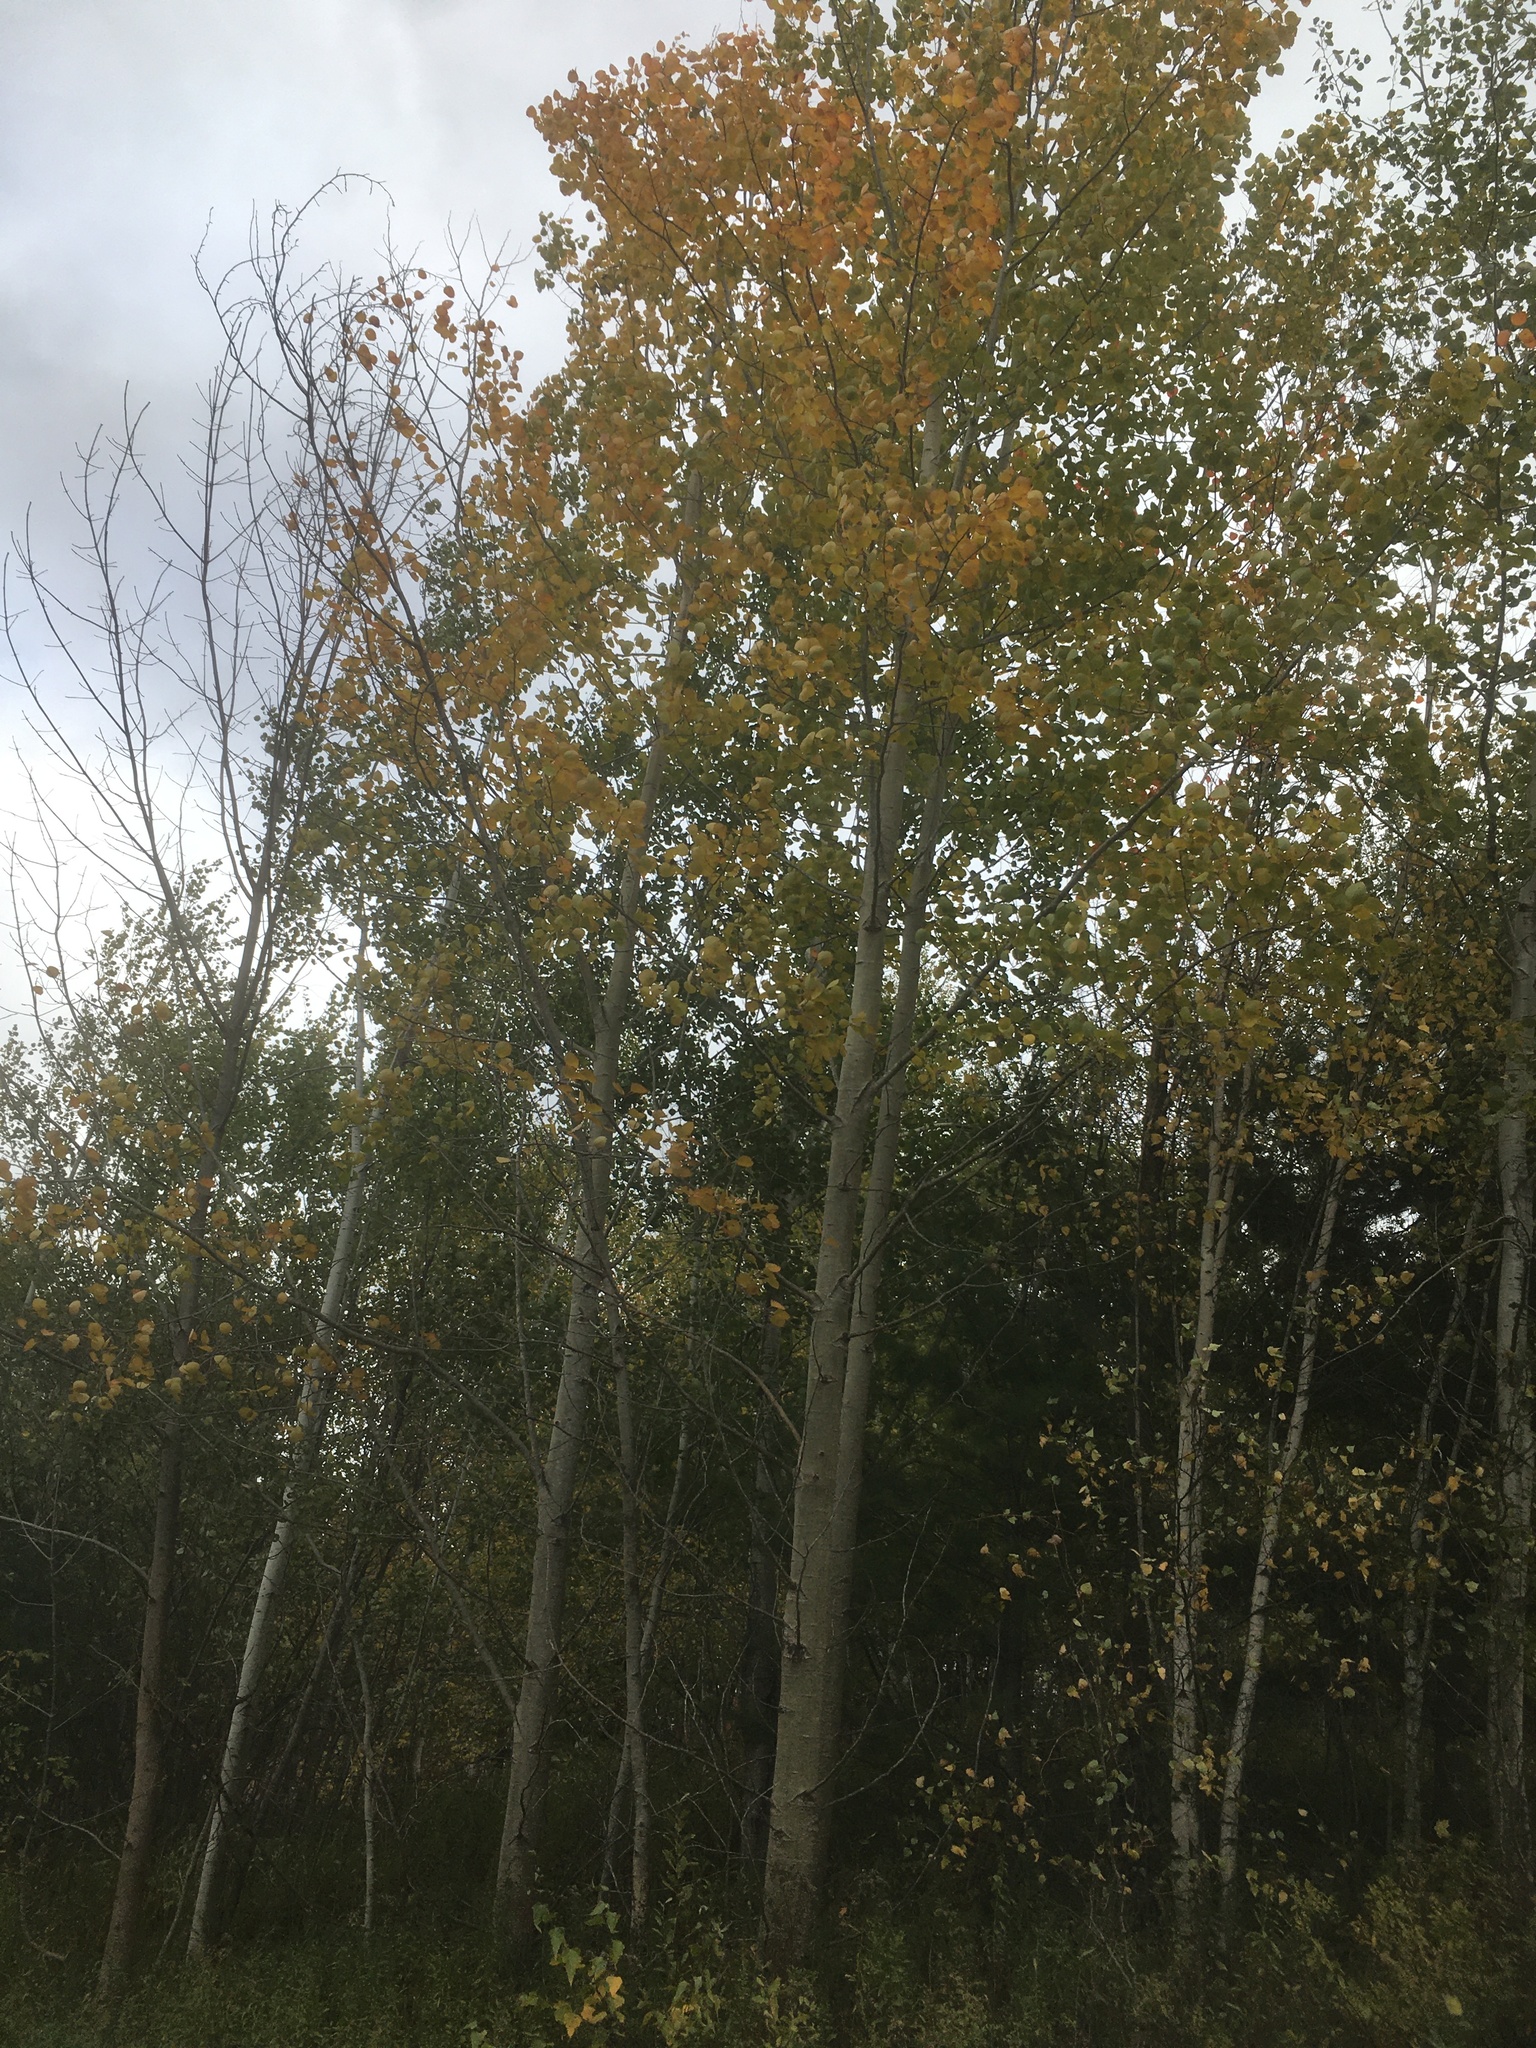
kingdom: Plantae
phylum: Tracheophyta
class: Magnoliopsida
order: Malpighiales
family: Salicaceae
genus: Populus
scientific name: Populus tremuloides
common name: Quaking aspen
